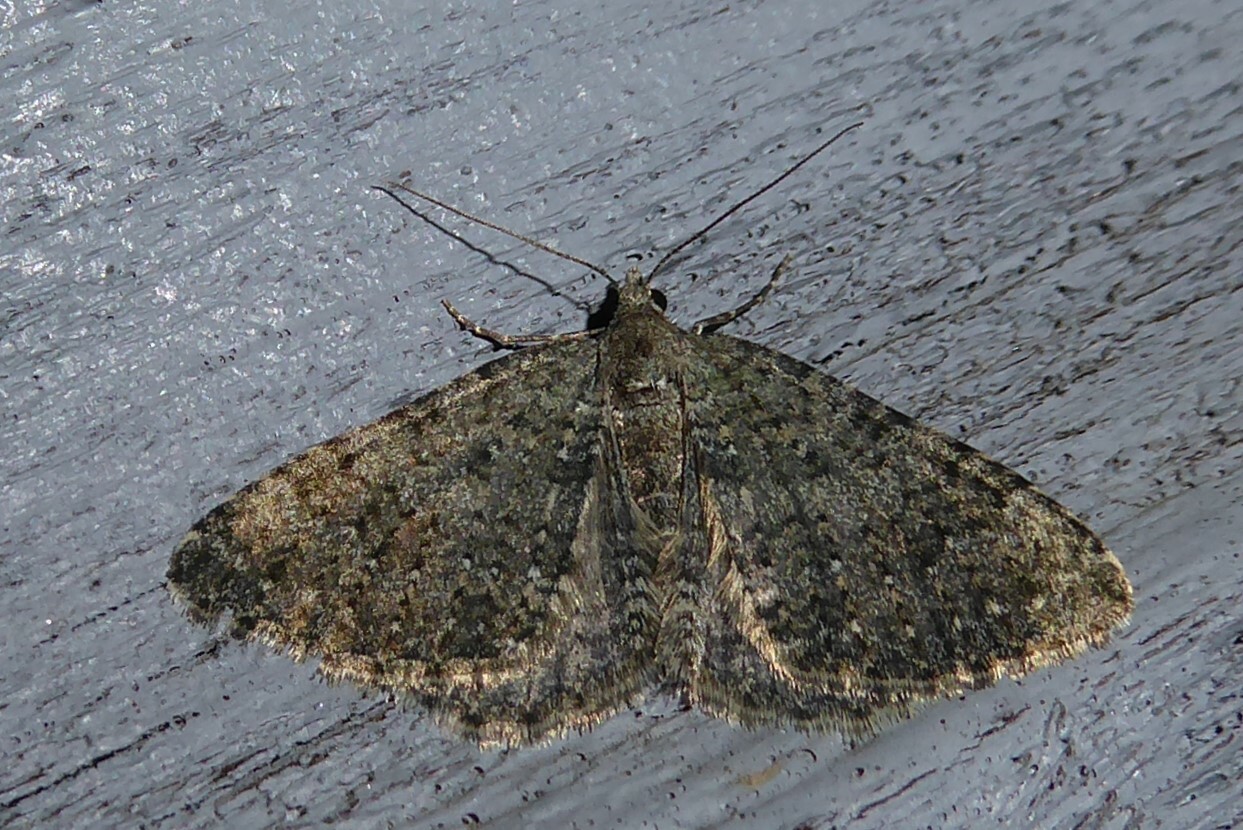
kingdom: Animalia
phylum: Arthropoda
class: Insecta
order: Lepidoptera
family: Geometridae
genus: Helastia
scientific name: Helastia corcularia
